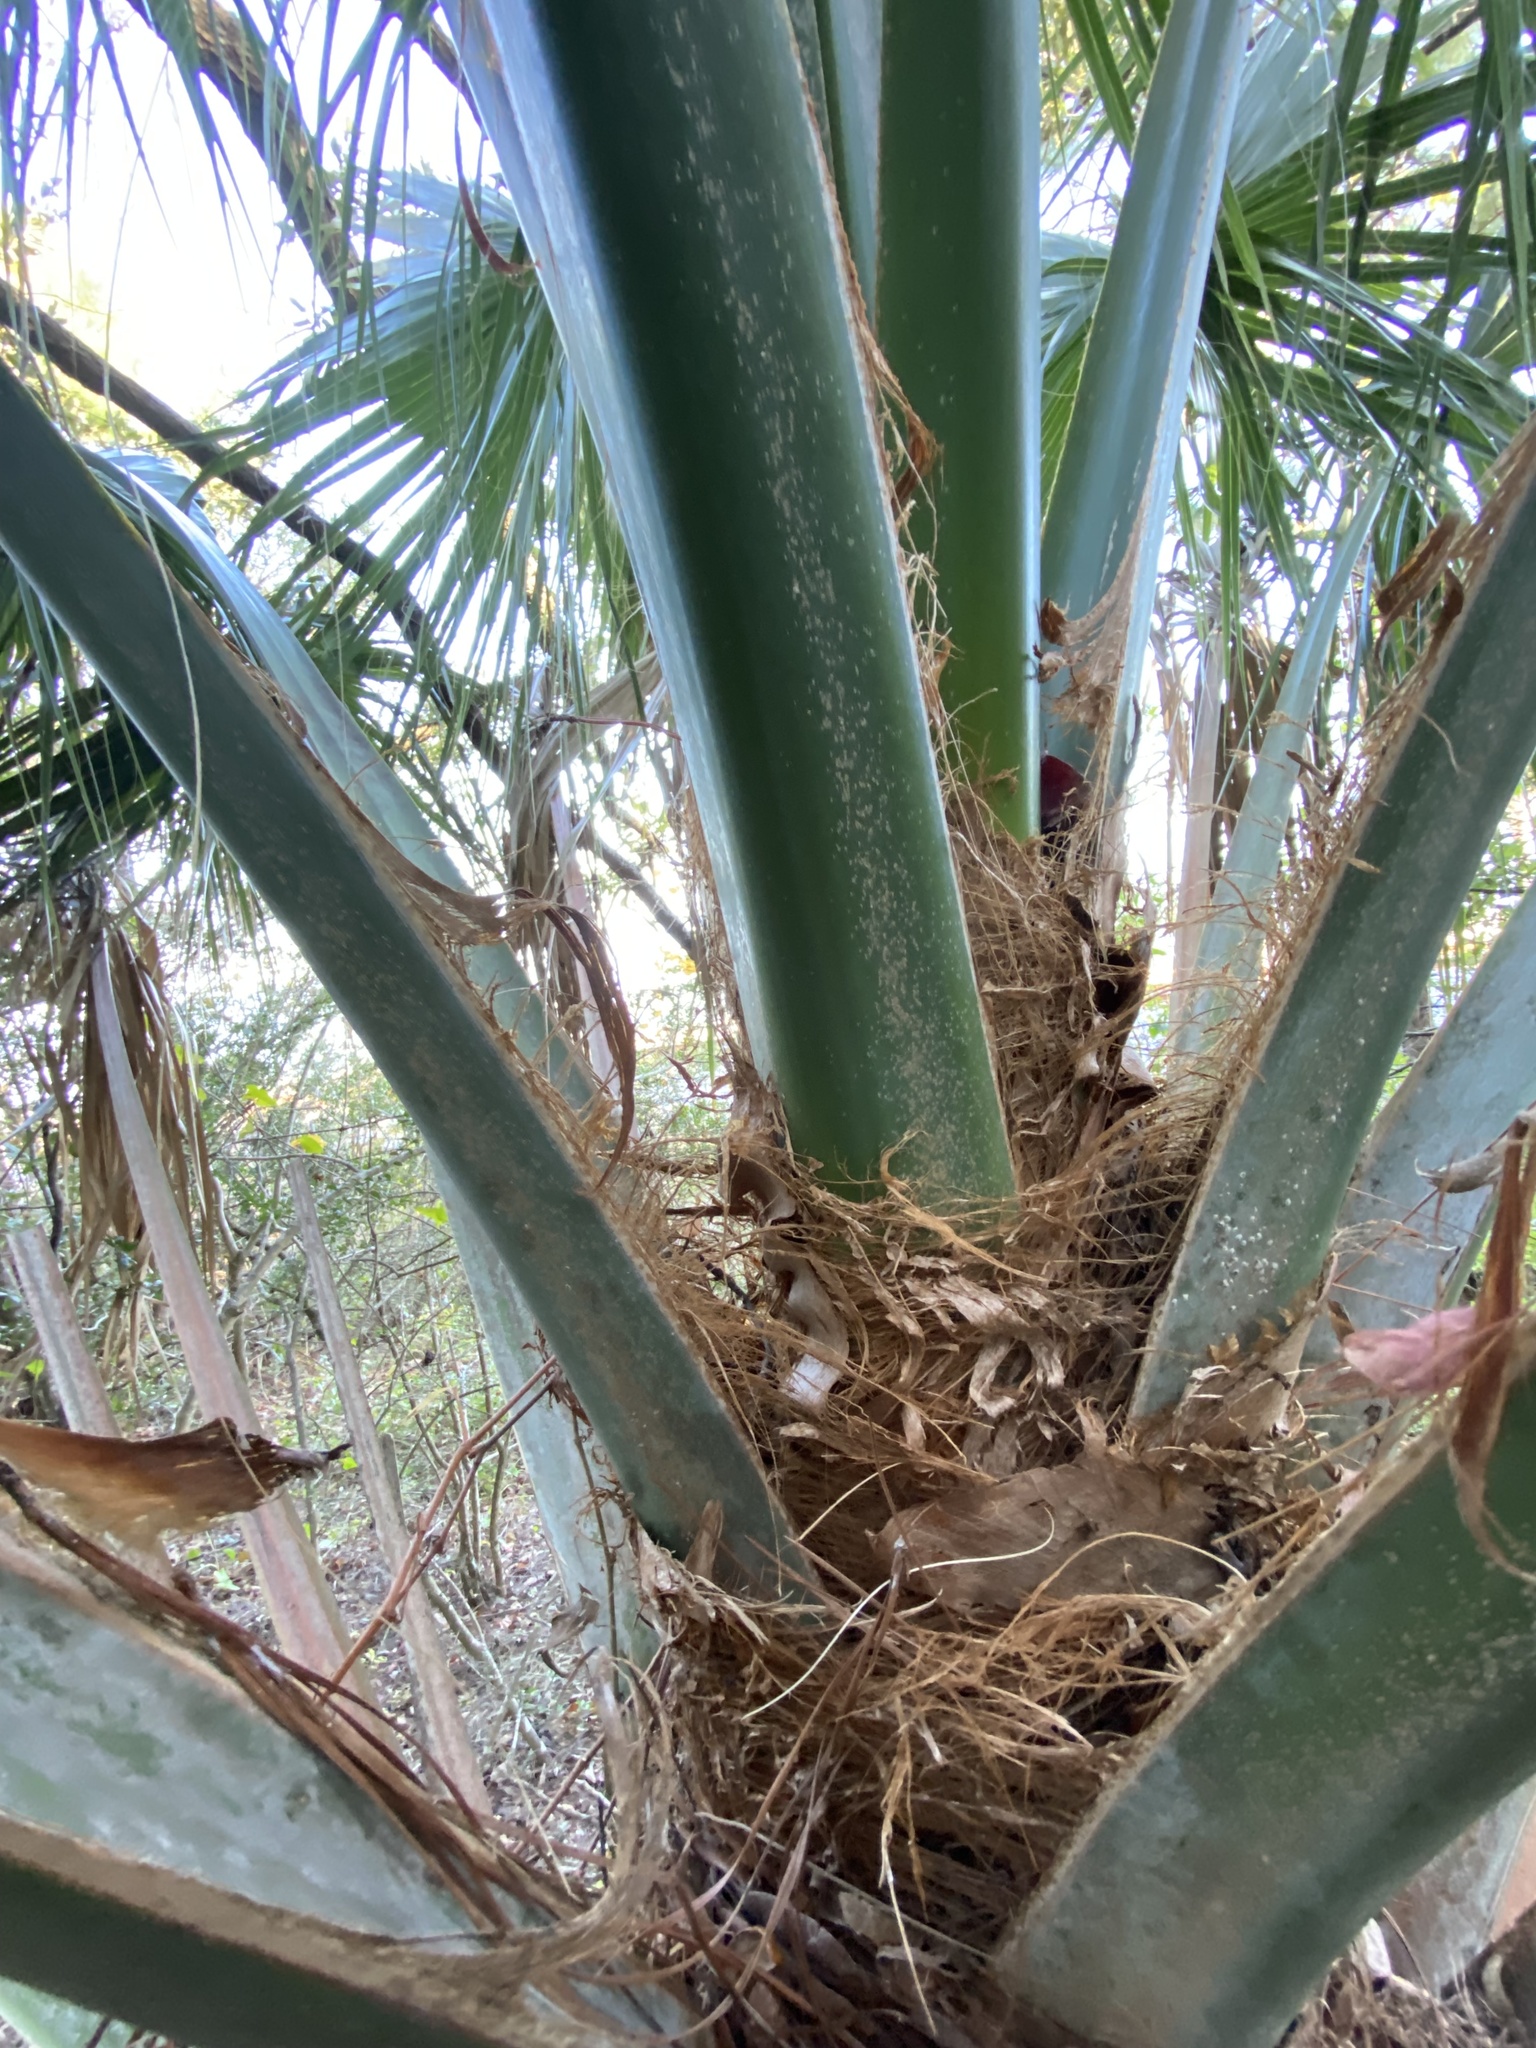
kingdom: Plantae
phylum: Tracheophyta
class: Liliopsida
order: Arecales
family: Arecaceae
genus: Sabal
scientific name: Sabal palmetto
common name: Blue palmetto
